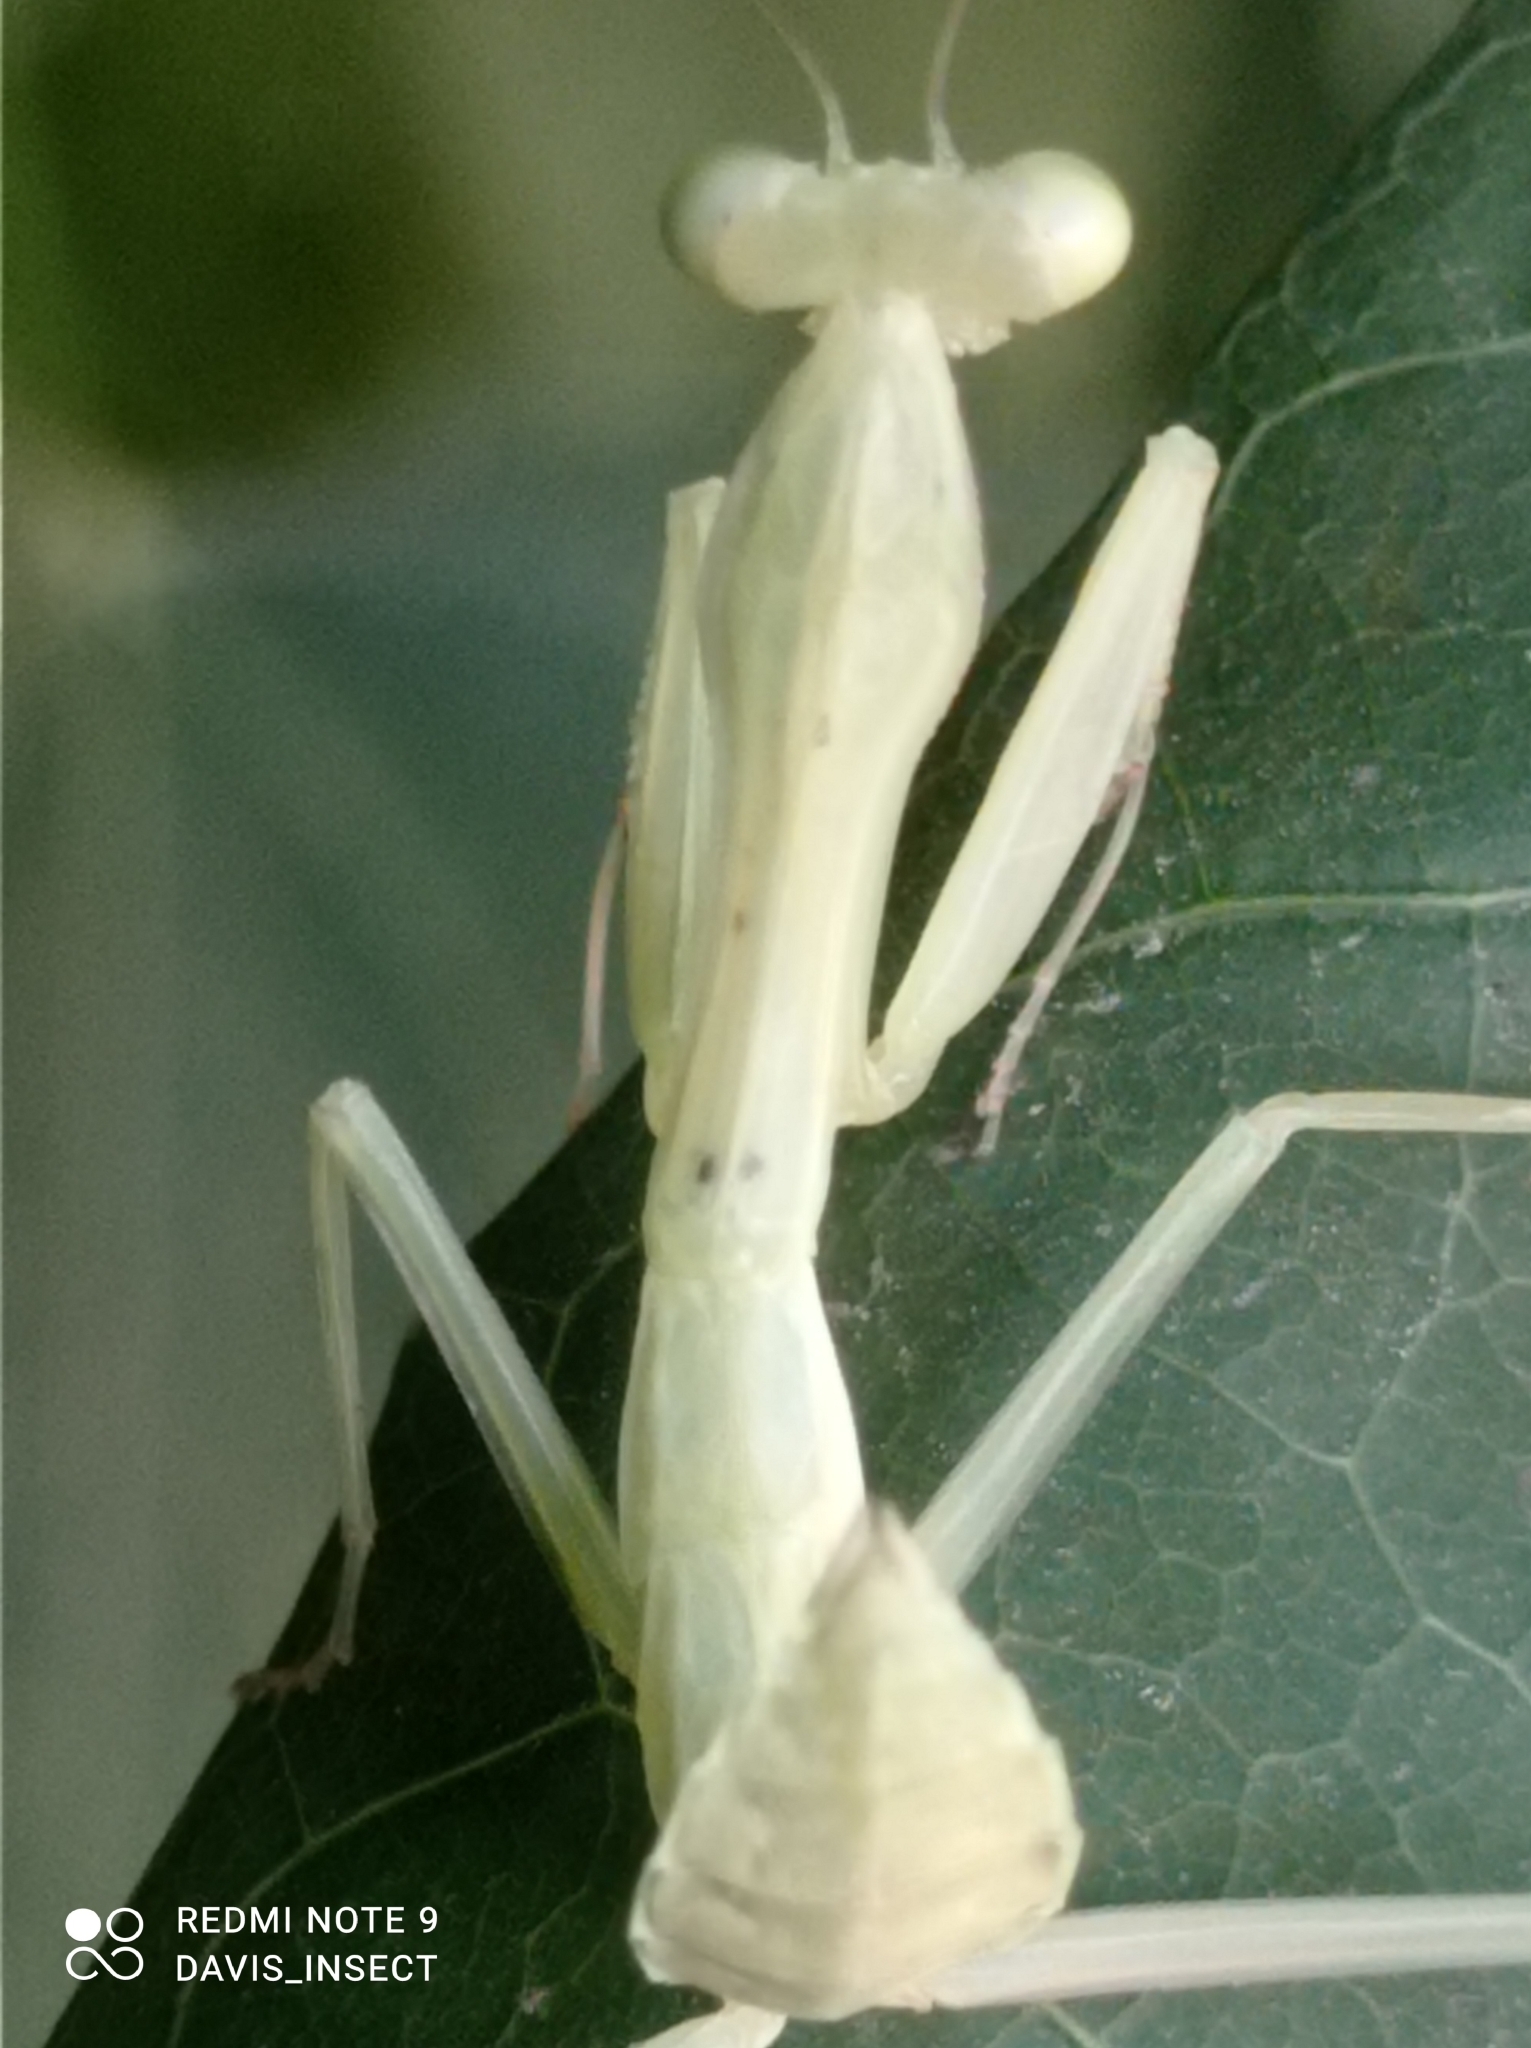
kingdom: Animalia
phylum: Arthropoda
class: Insecta
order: Mantodea
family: Mantidae
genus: Hierodula
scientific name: Hierodula quinquepatellata
